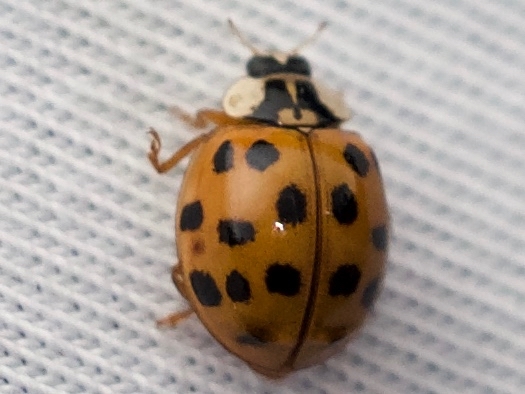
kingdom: Animalia
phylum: Arthropoda
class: Insecta
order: Coleoptera
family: Coccinellidae
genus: Harmonia
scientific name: Harmonia axyridis
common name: Harlequin ladybird
